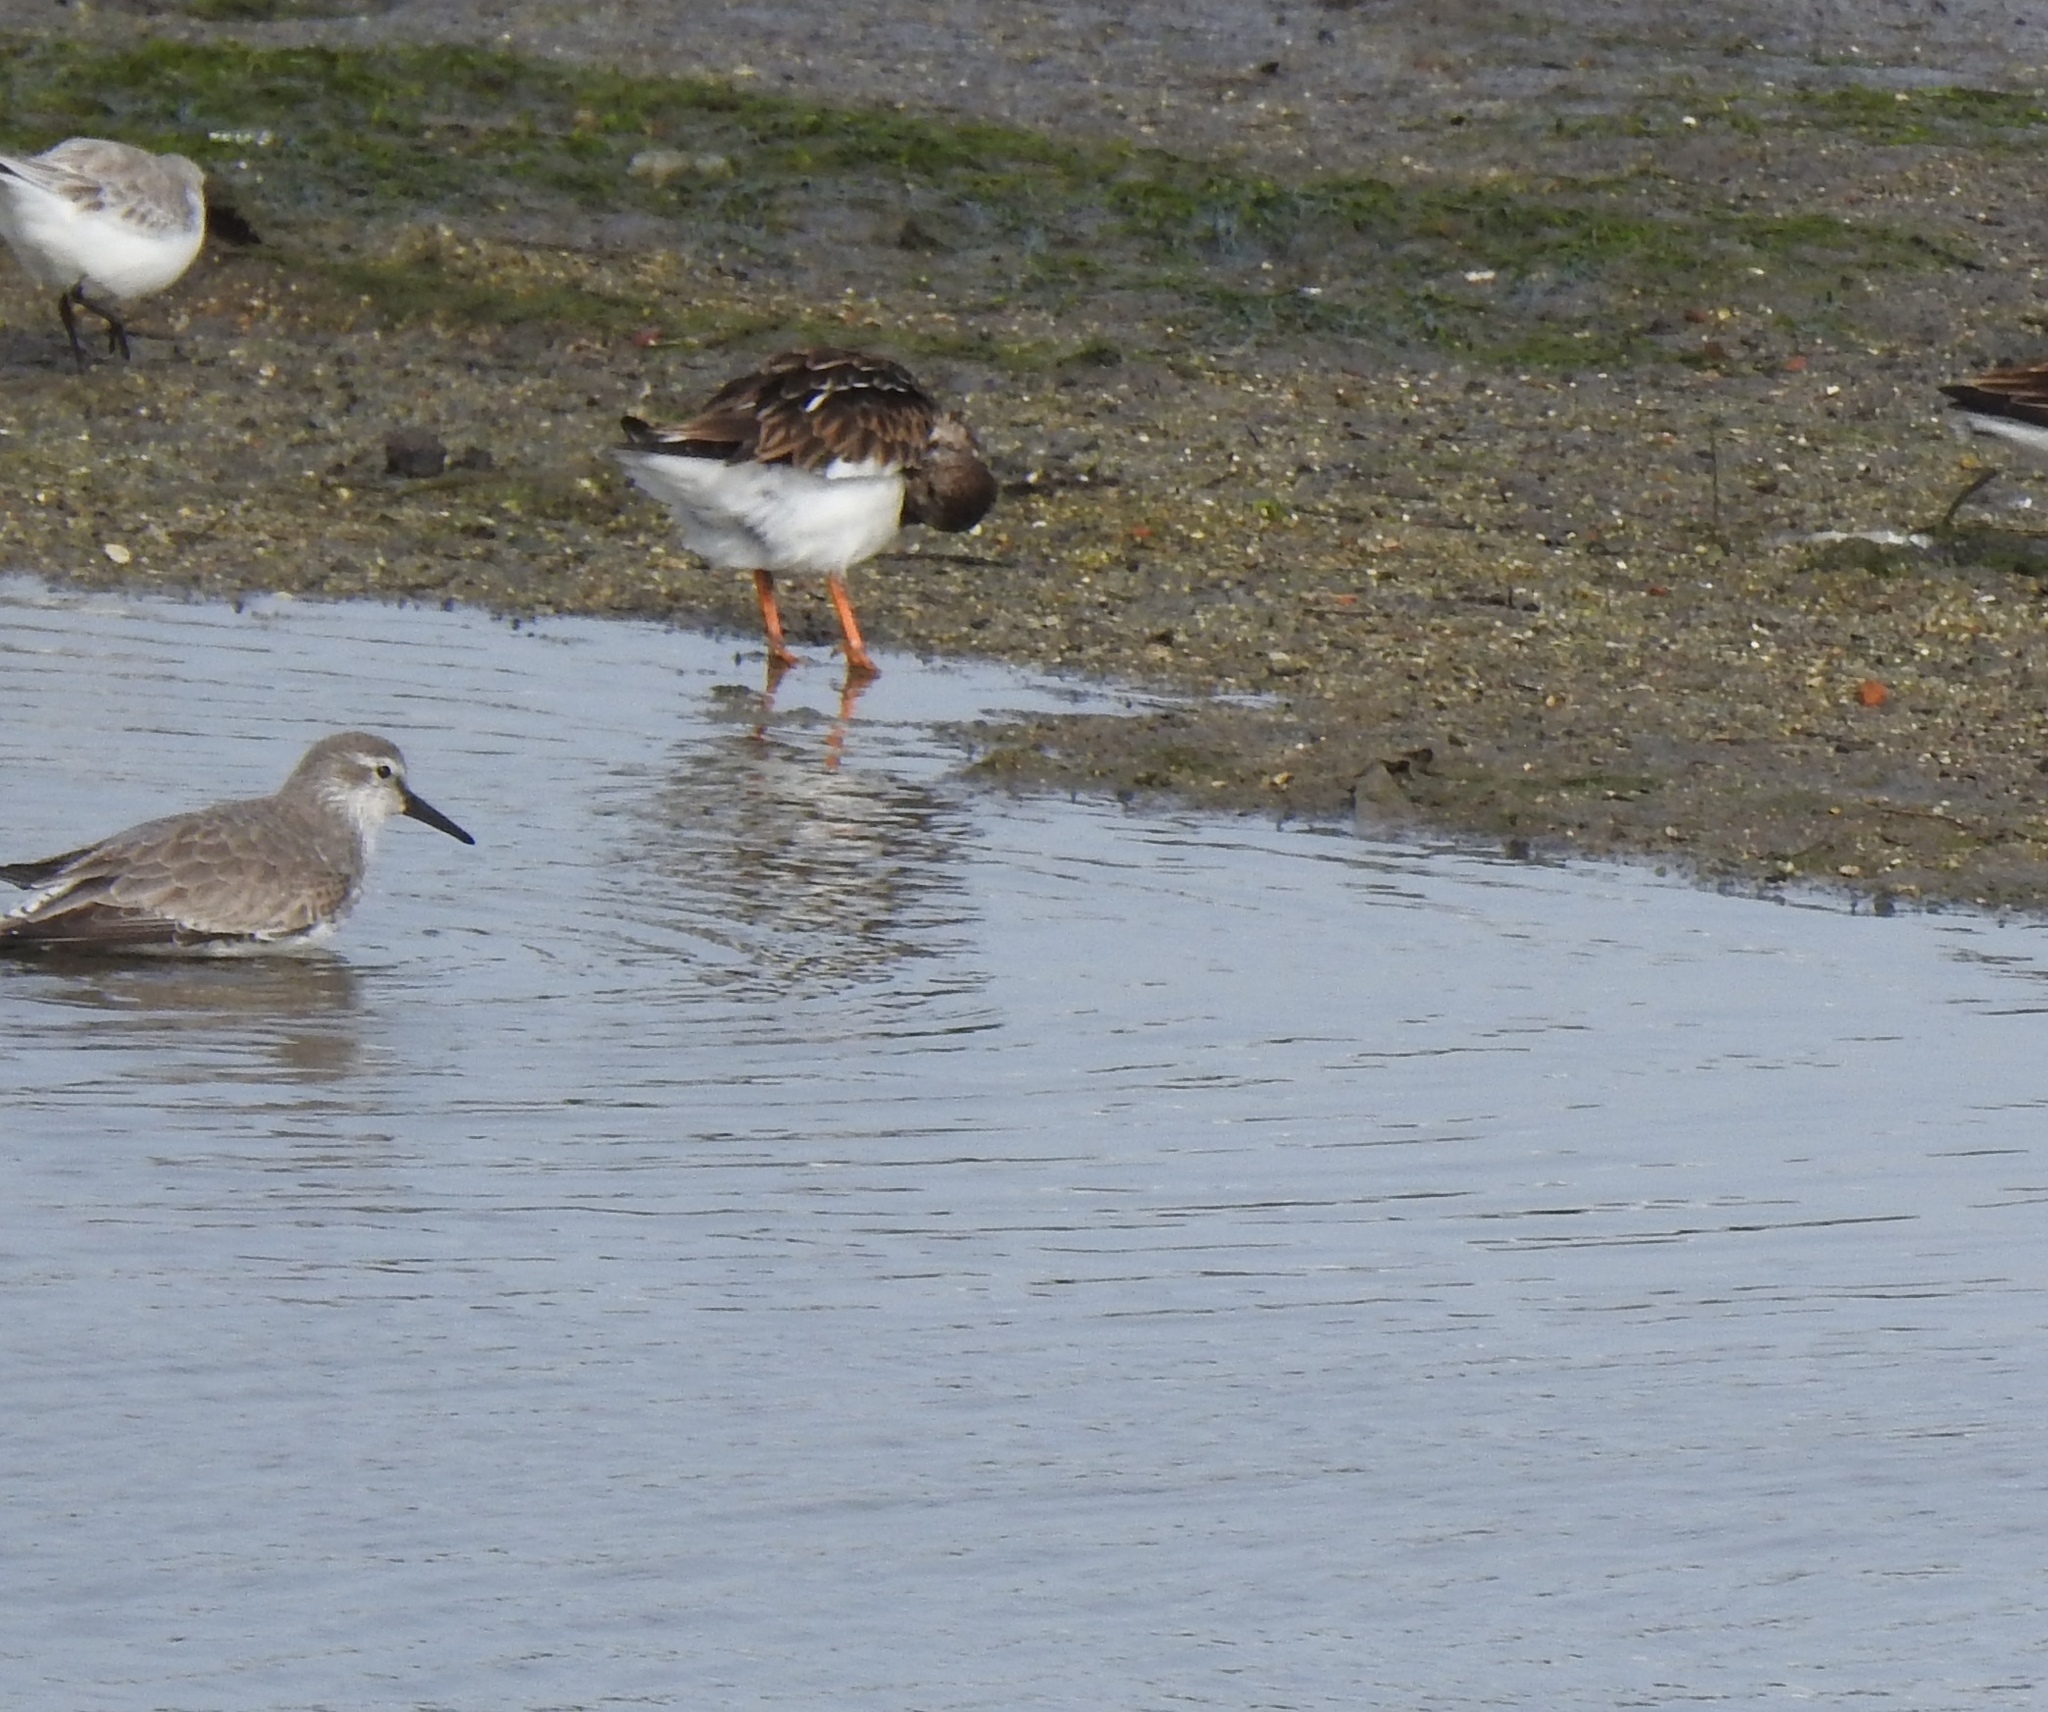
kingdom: Animalia
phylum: Chordata
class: Aves
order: Charadriiformes
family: Scolopacidae
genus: Calidris
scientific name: Calidris canutus
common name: Red knot
